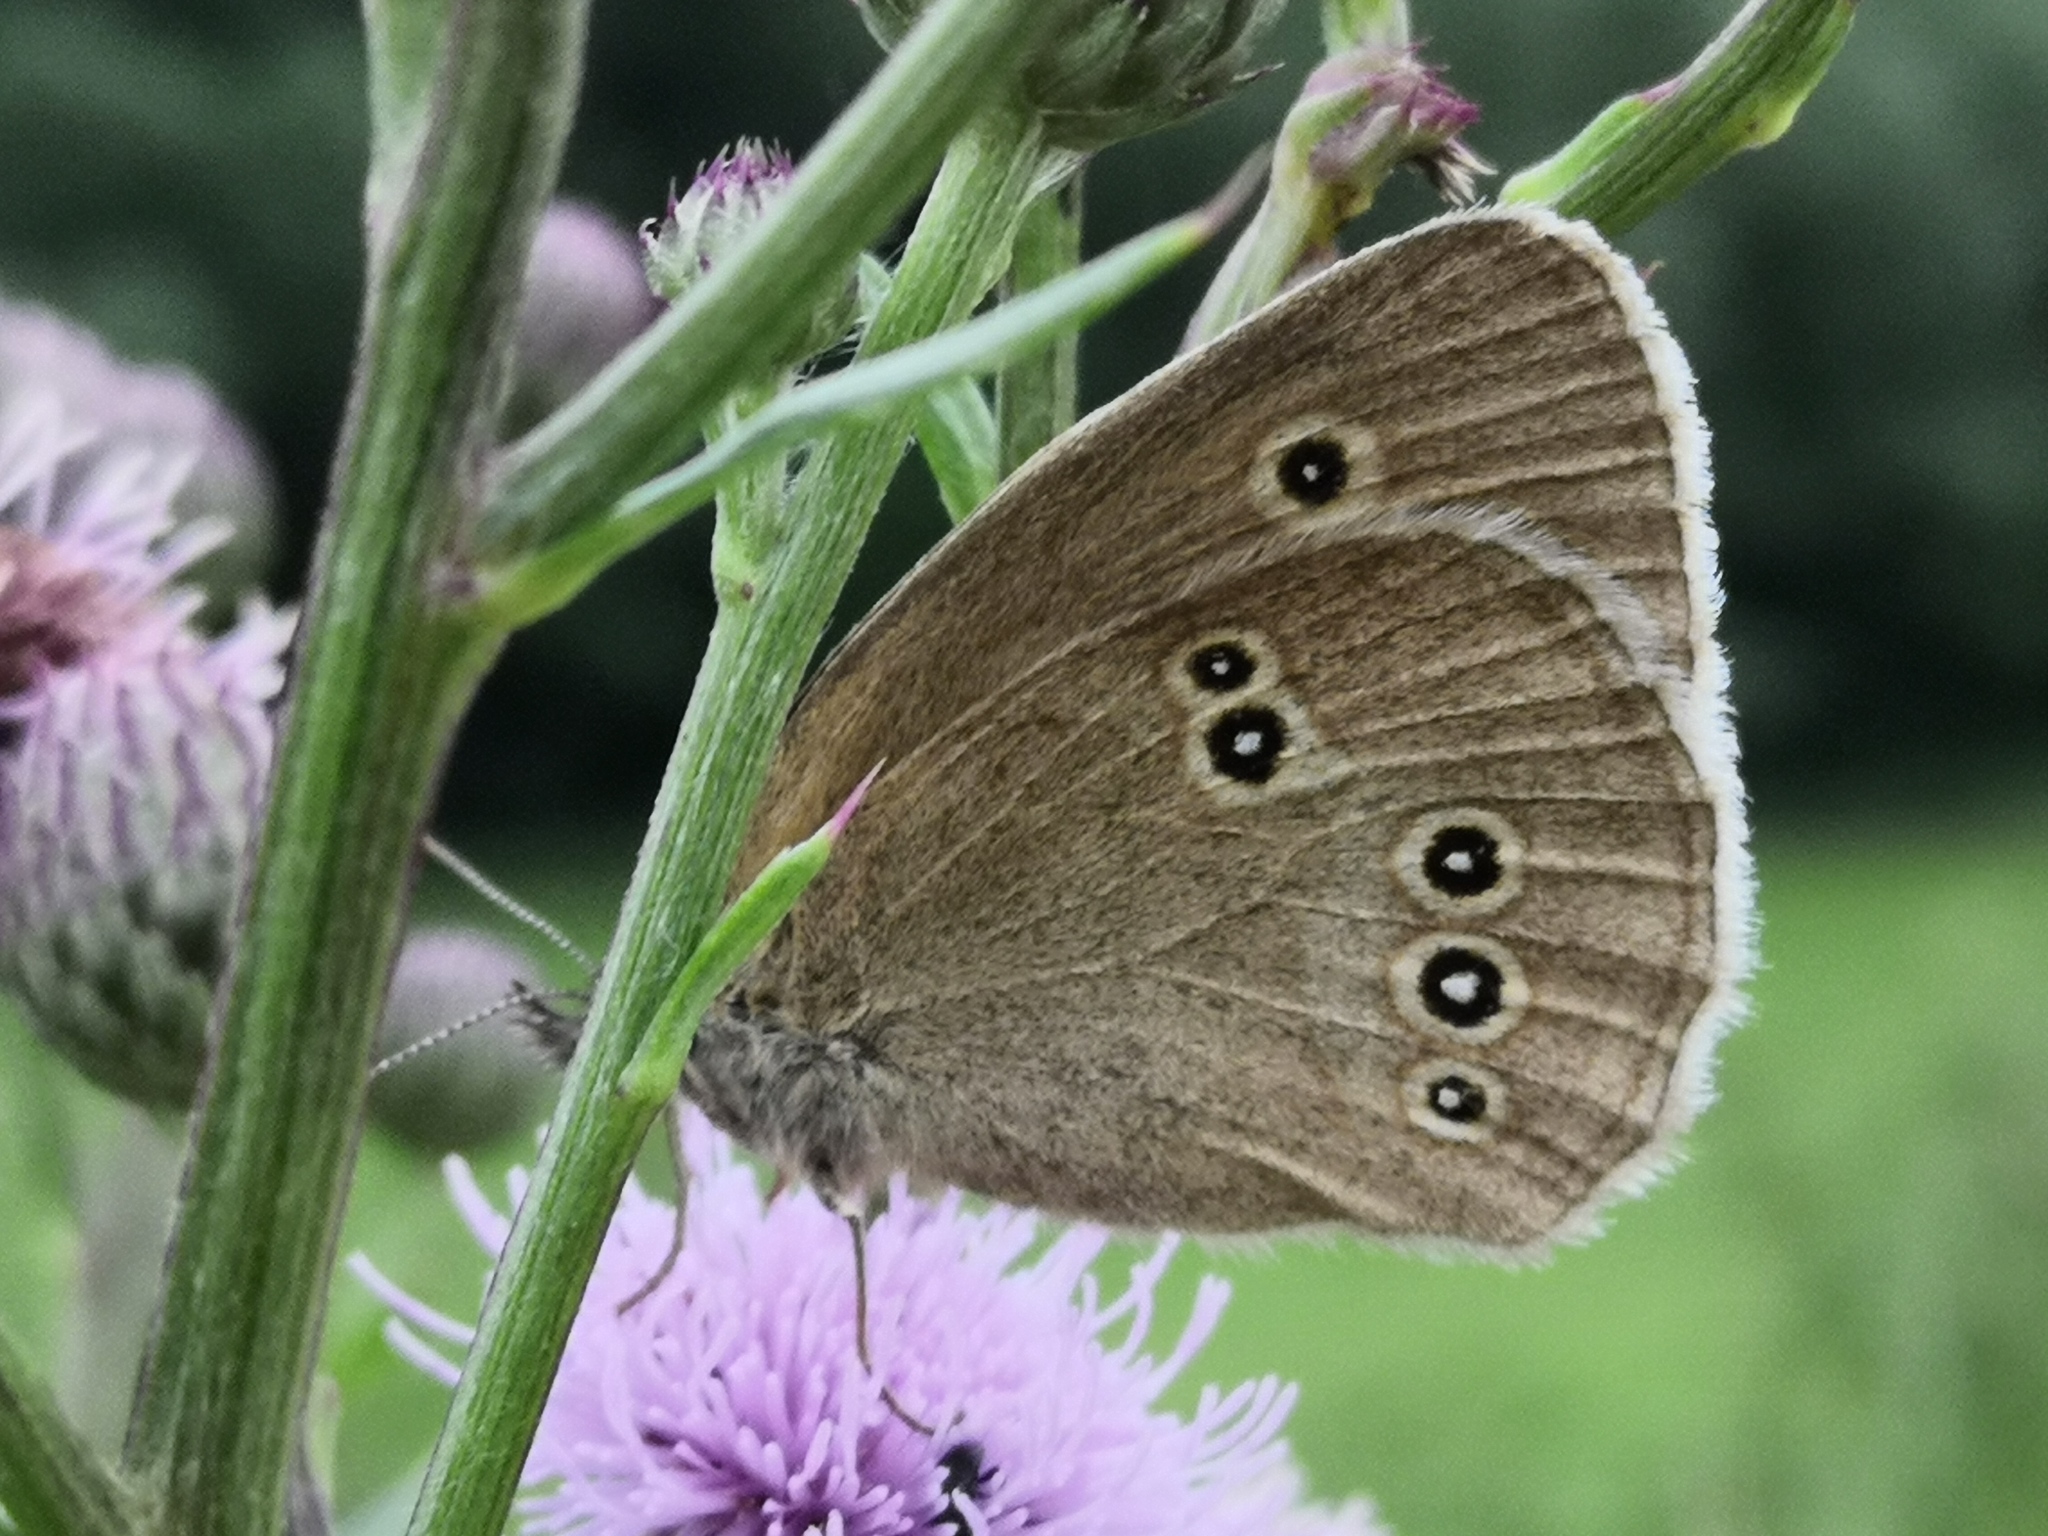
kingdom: Animalia
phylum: Arthropoda
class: Insecta
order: Lepidoptera
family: Nymphalidae
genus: Aphantopus
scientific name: Aphantopus hyperantus
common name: Ringlet
